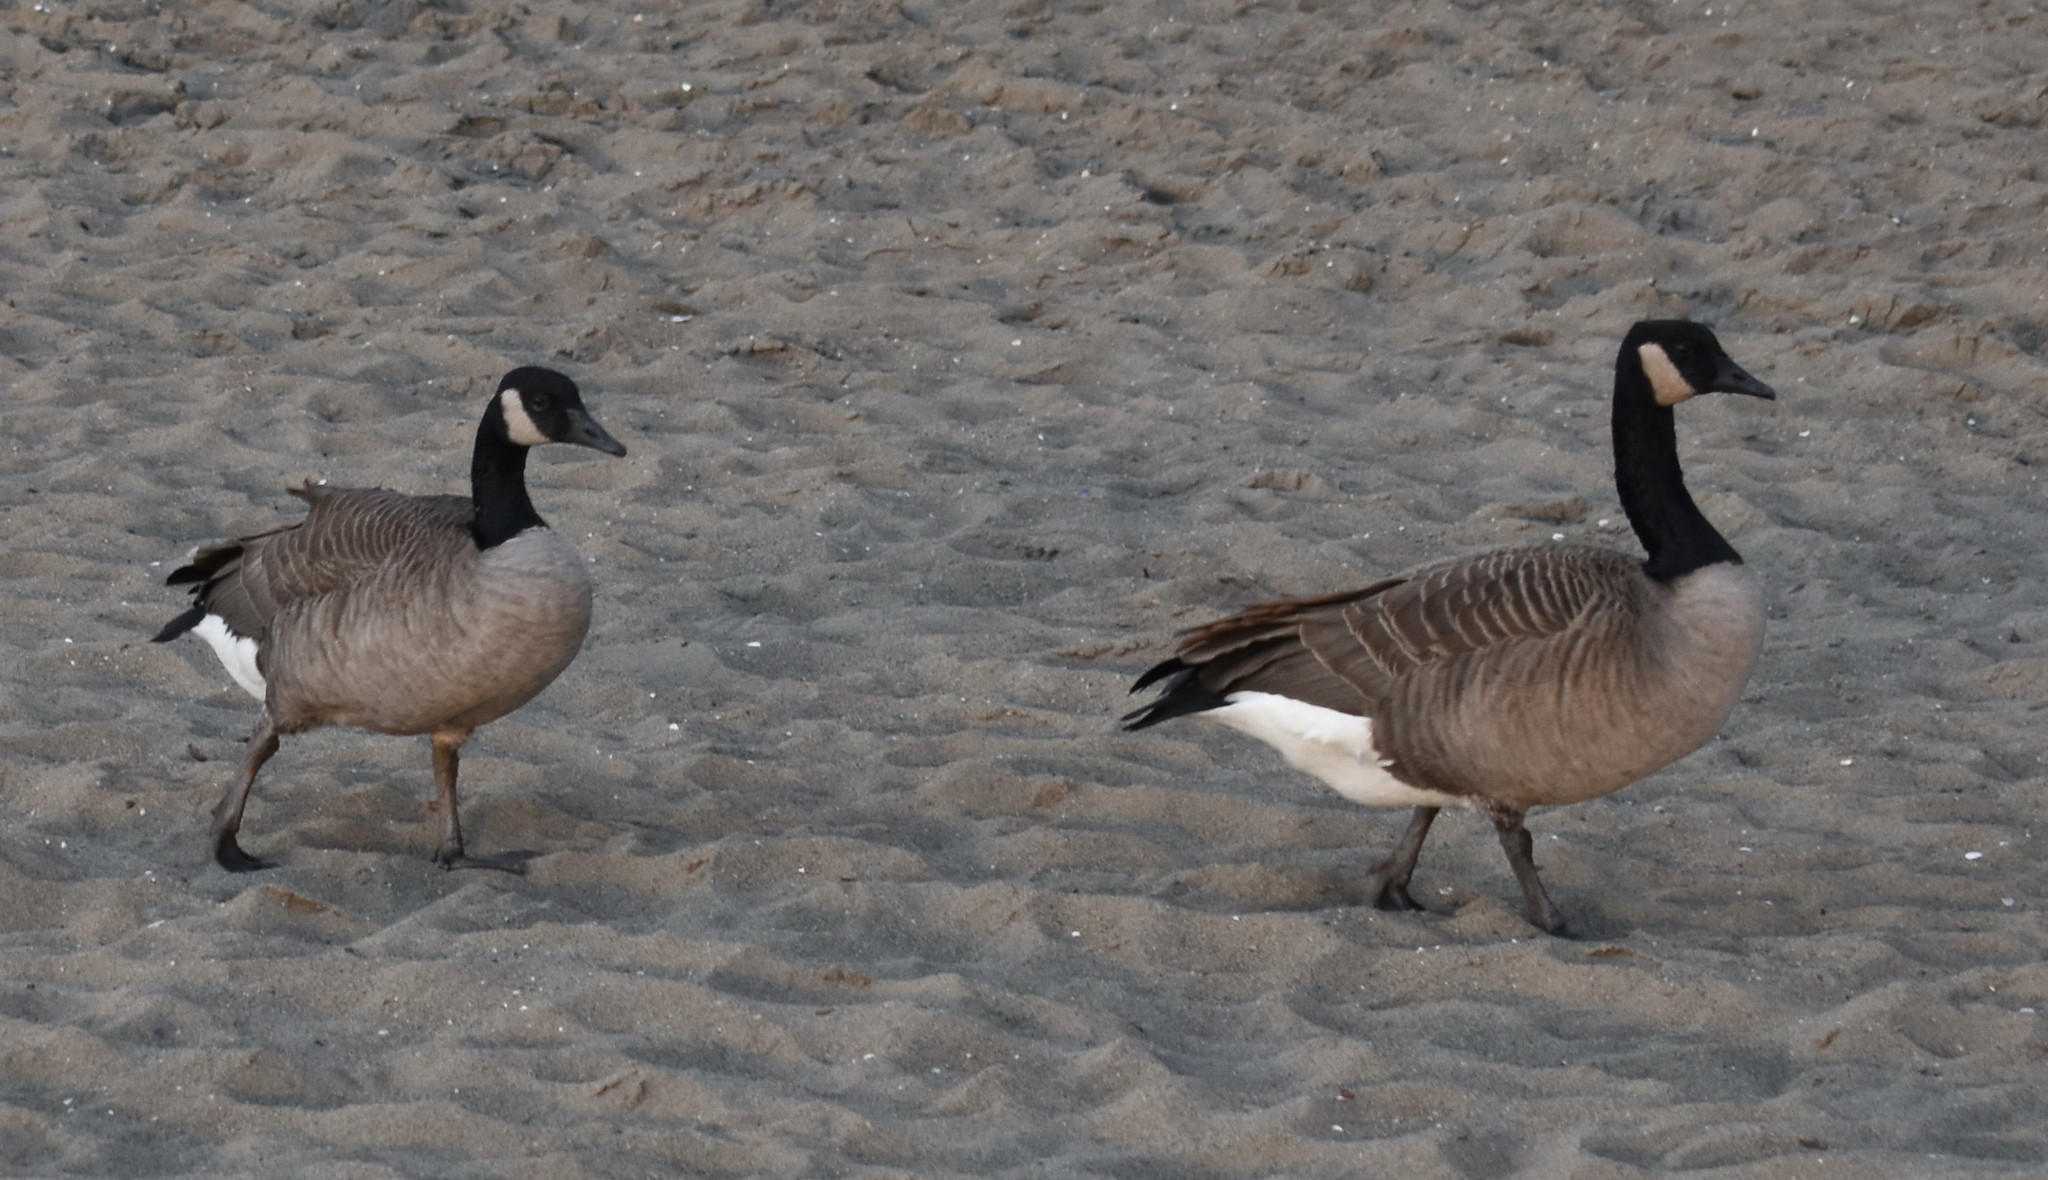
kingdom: Animalia
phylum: Chordata
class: Aves
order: Anseriformes
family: Anatidae
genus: Branta
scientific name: Branta canadensis
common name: Canada goose
